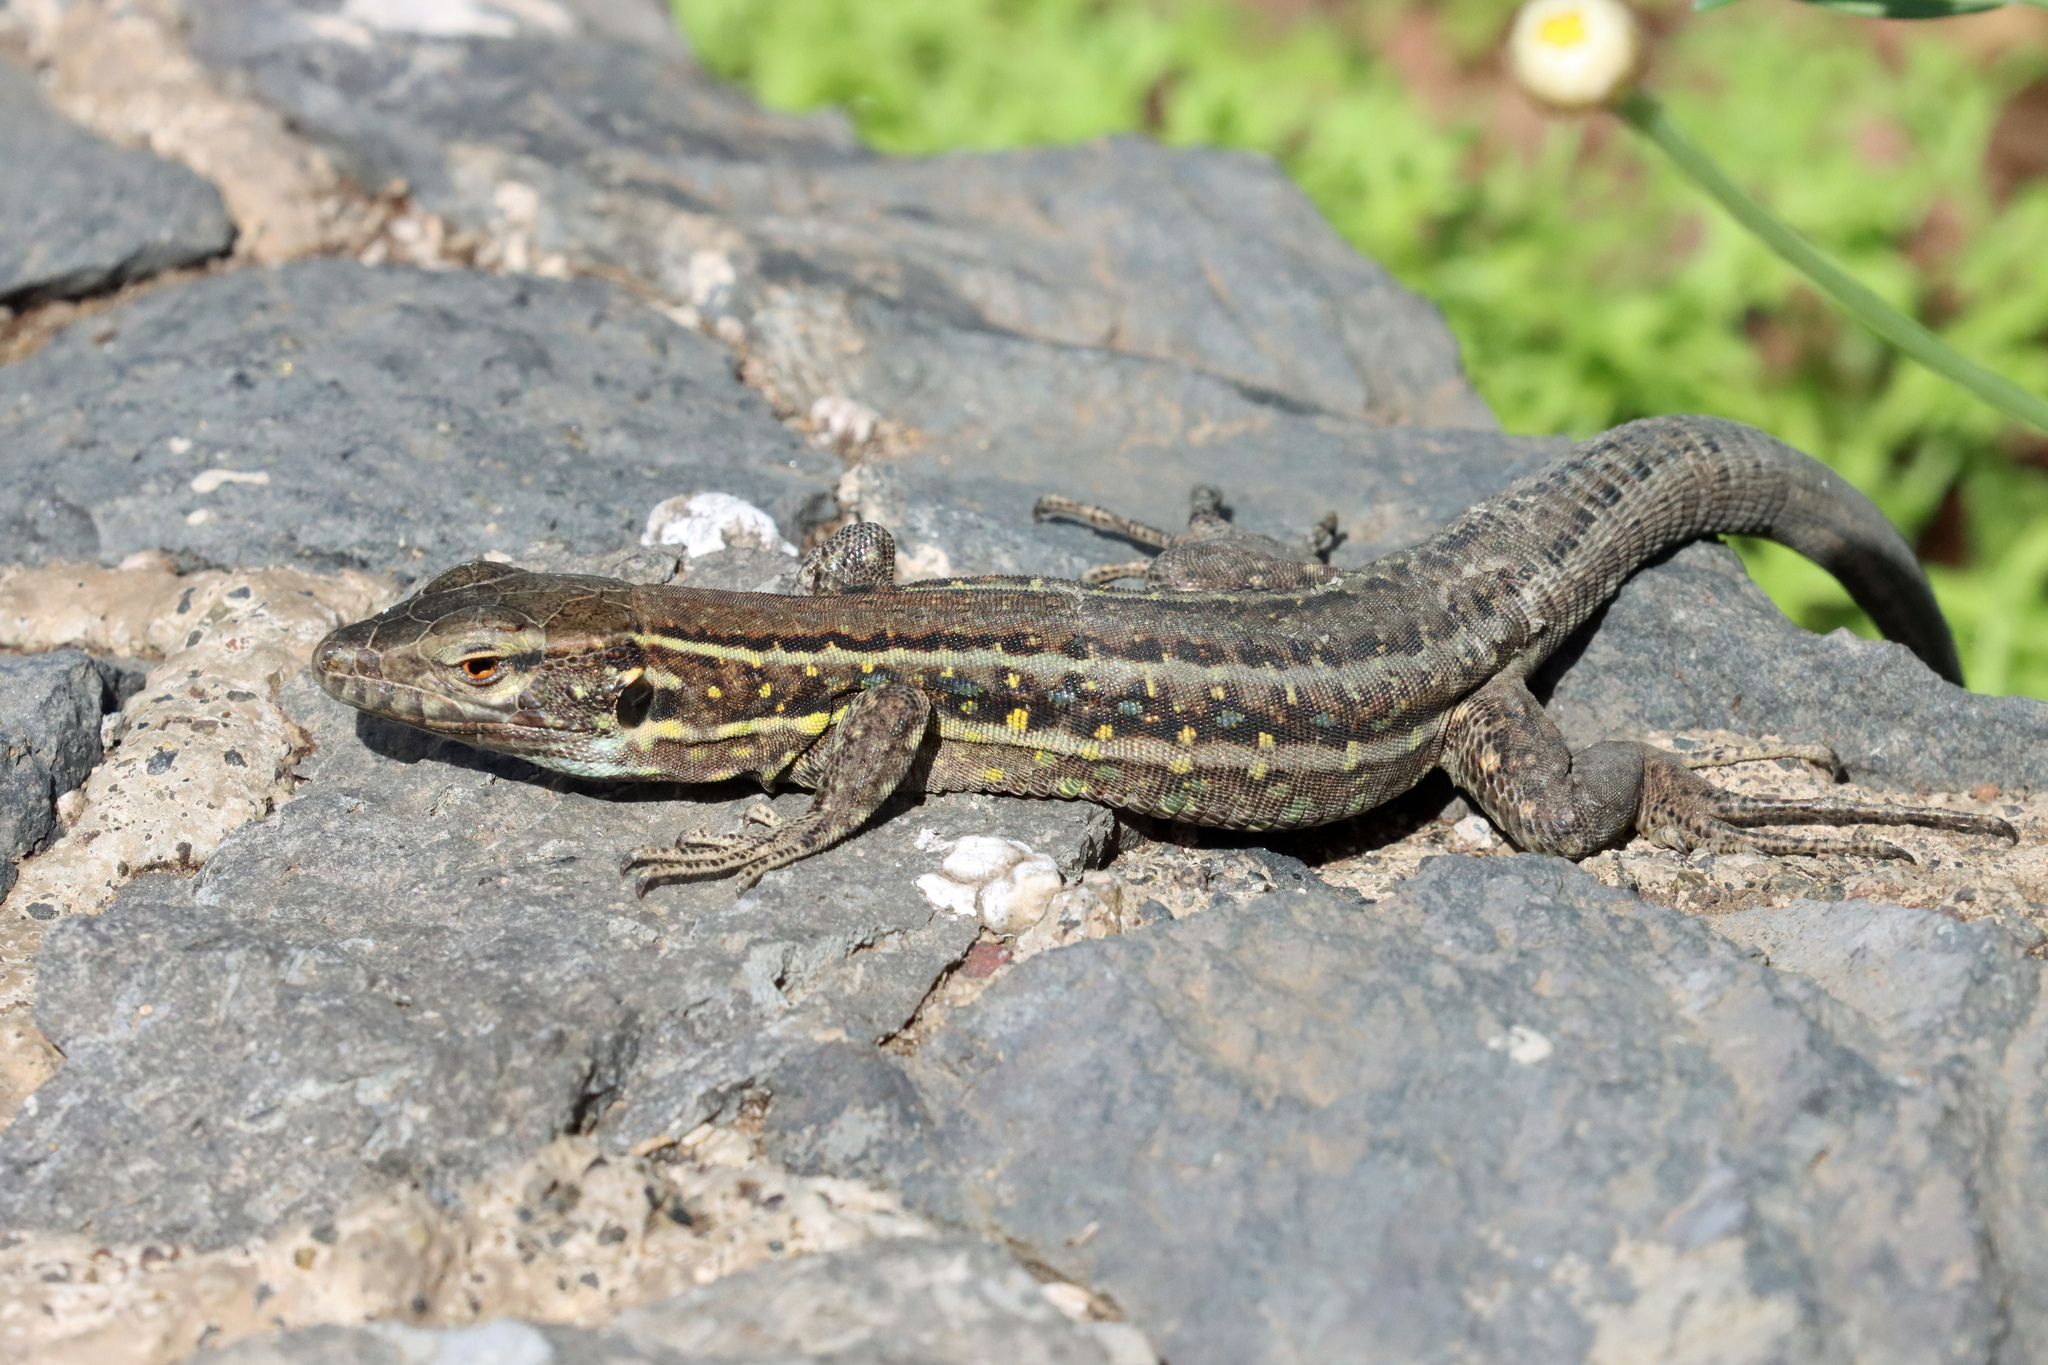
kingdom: Animalia
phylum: Chordata
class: Squamata
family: Lacertidae
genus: Gallotia
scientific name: Gallotia galloti
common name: Gallot's lizard
